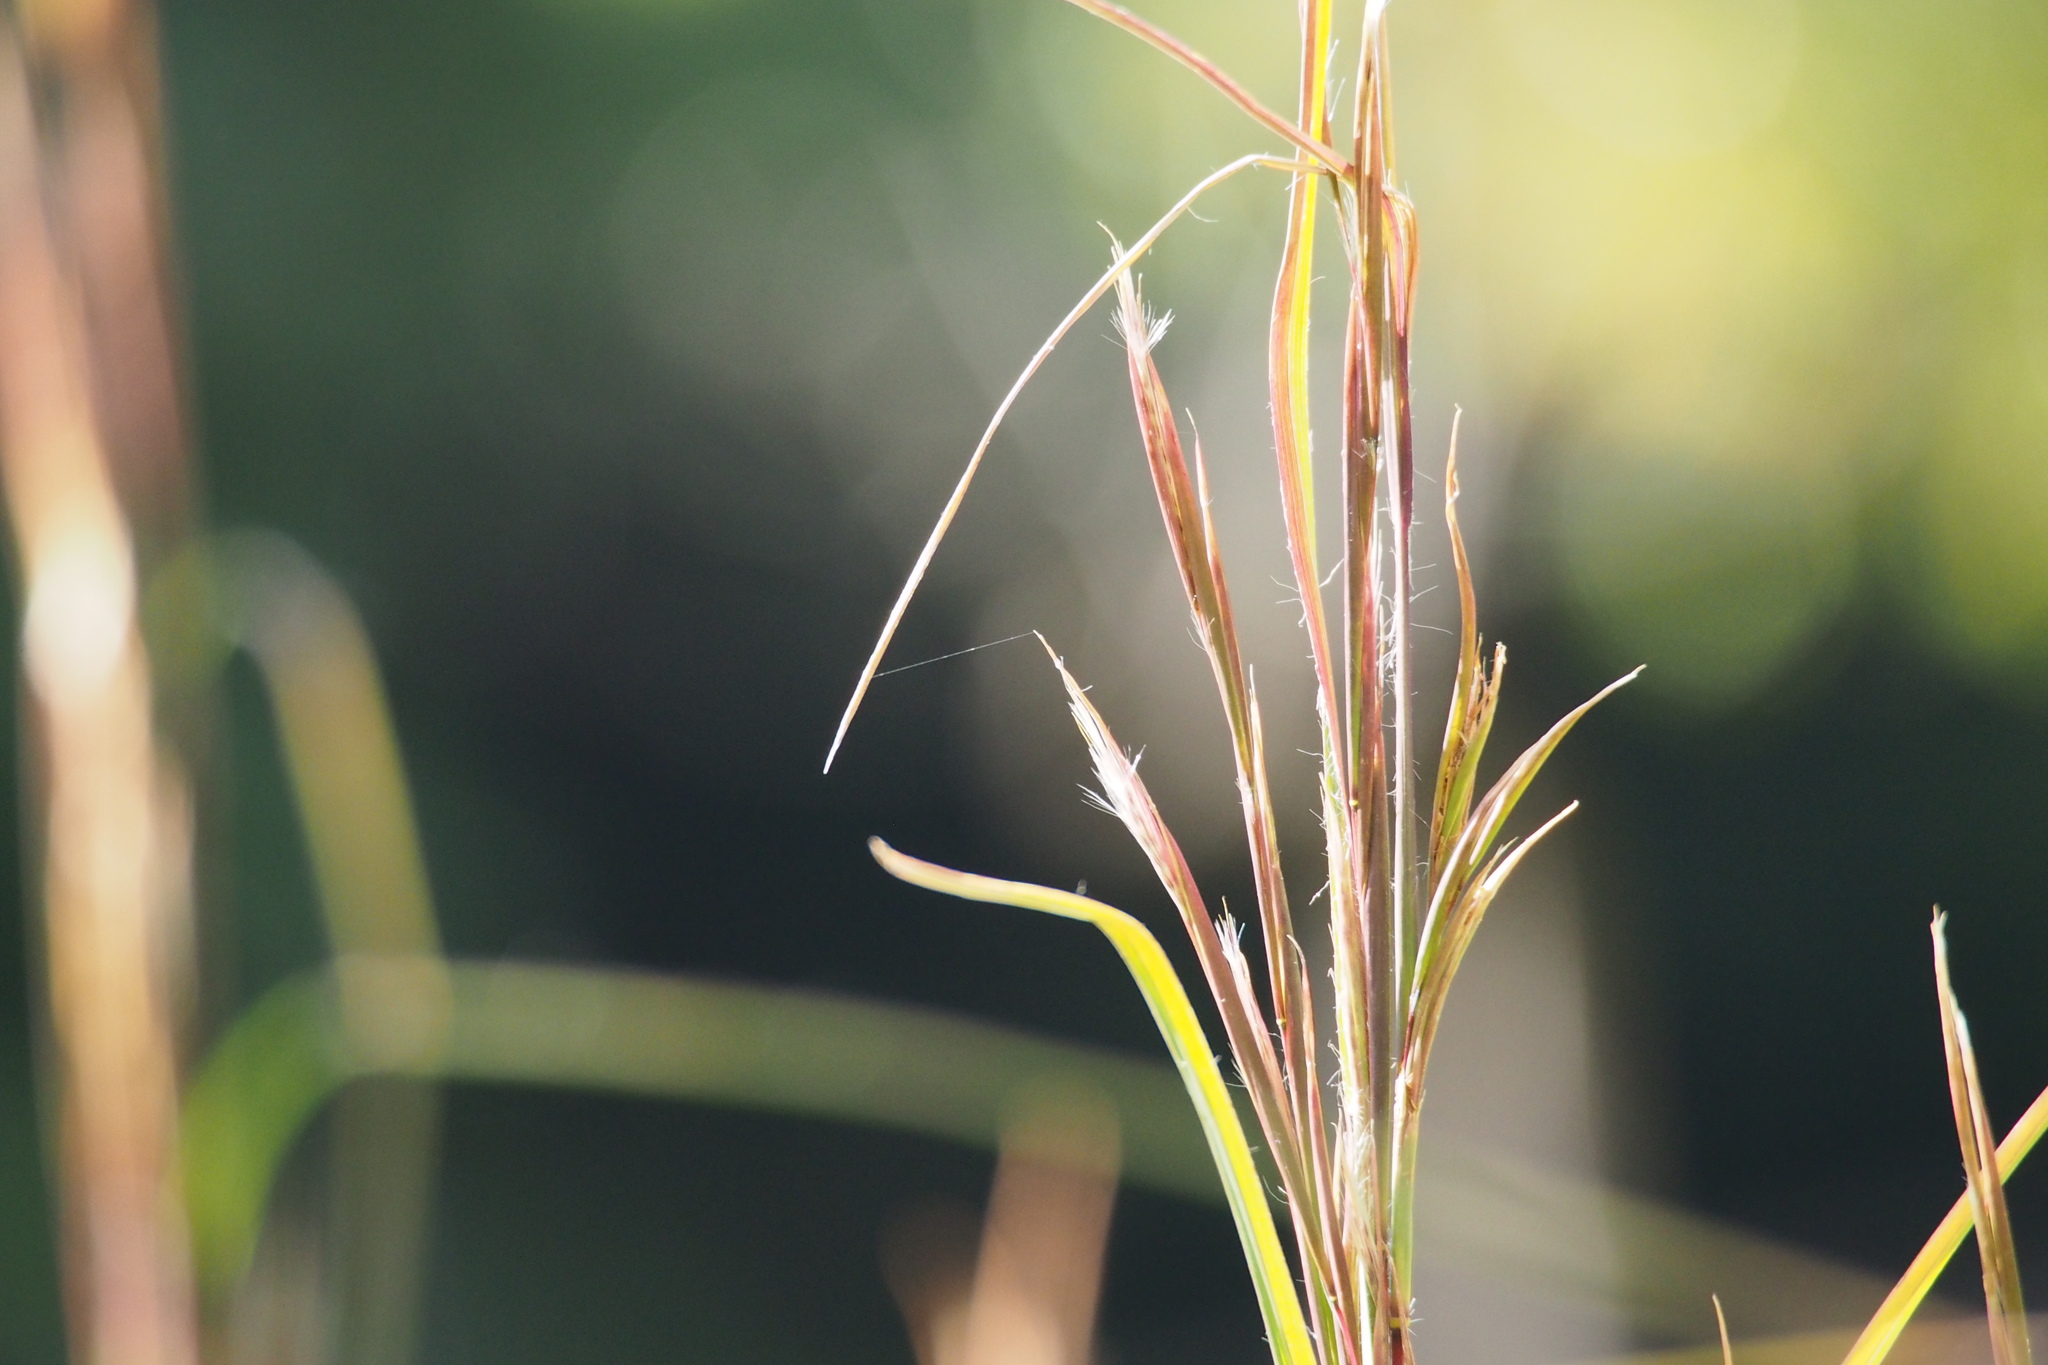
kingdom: Plantae
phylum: Tracheophyta
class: Liliopsida
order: Poales
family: Poaceae
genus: Andropogon
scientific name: Andropogon virginicus
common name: Broomsedge bluestem
